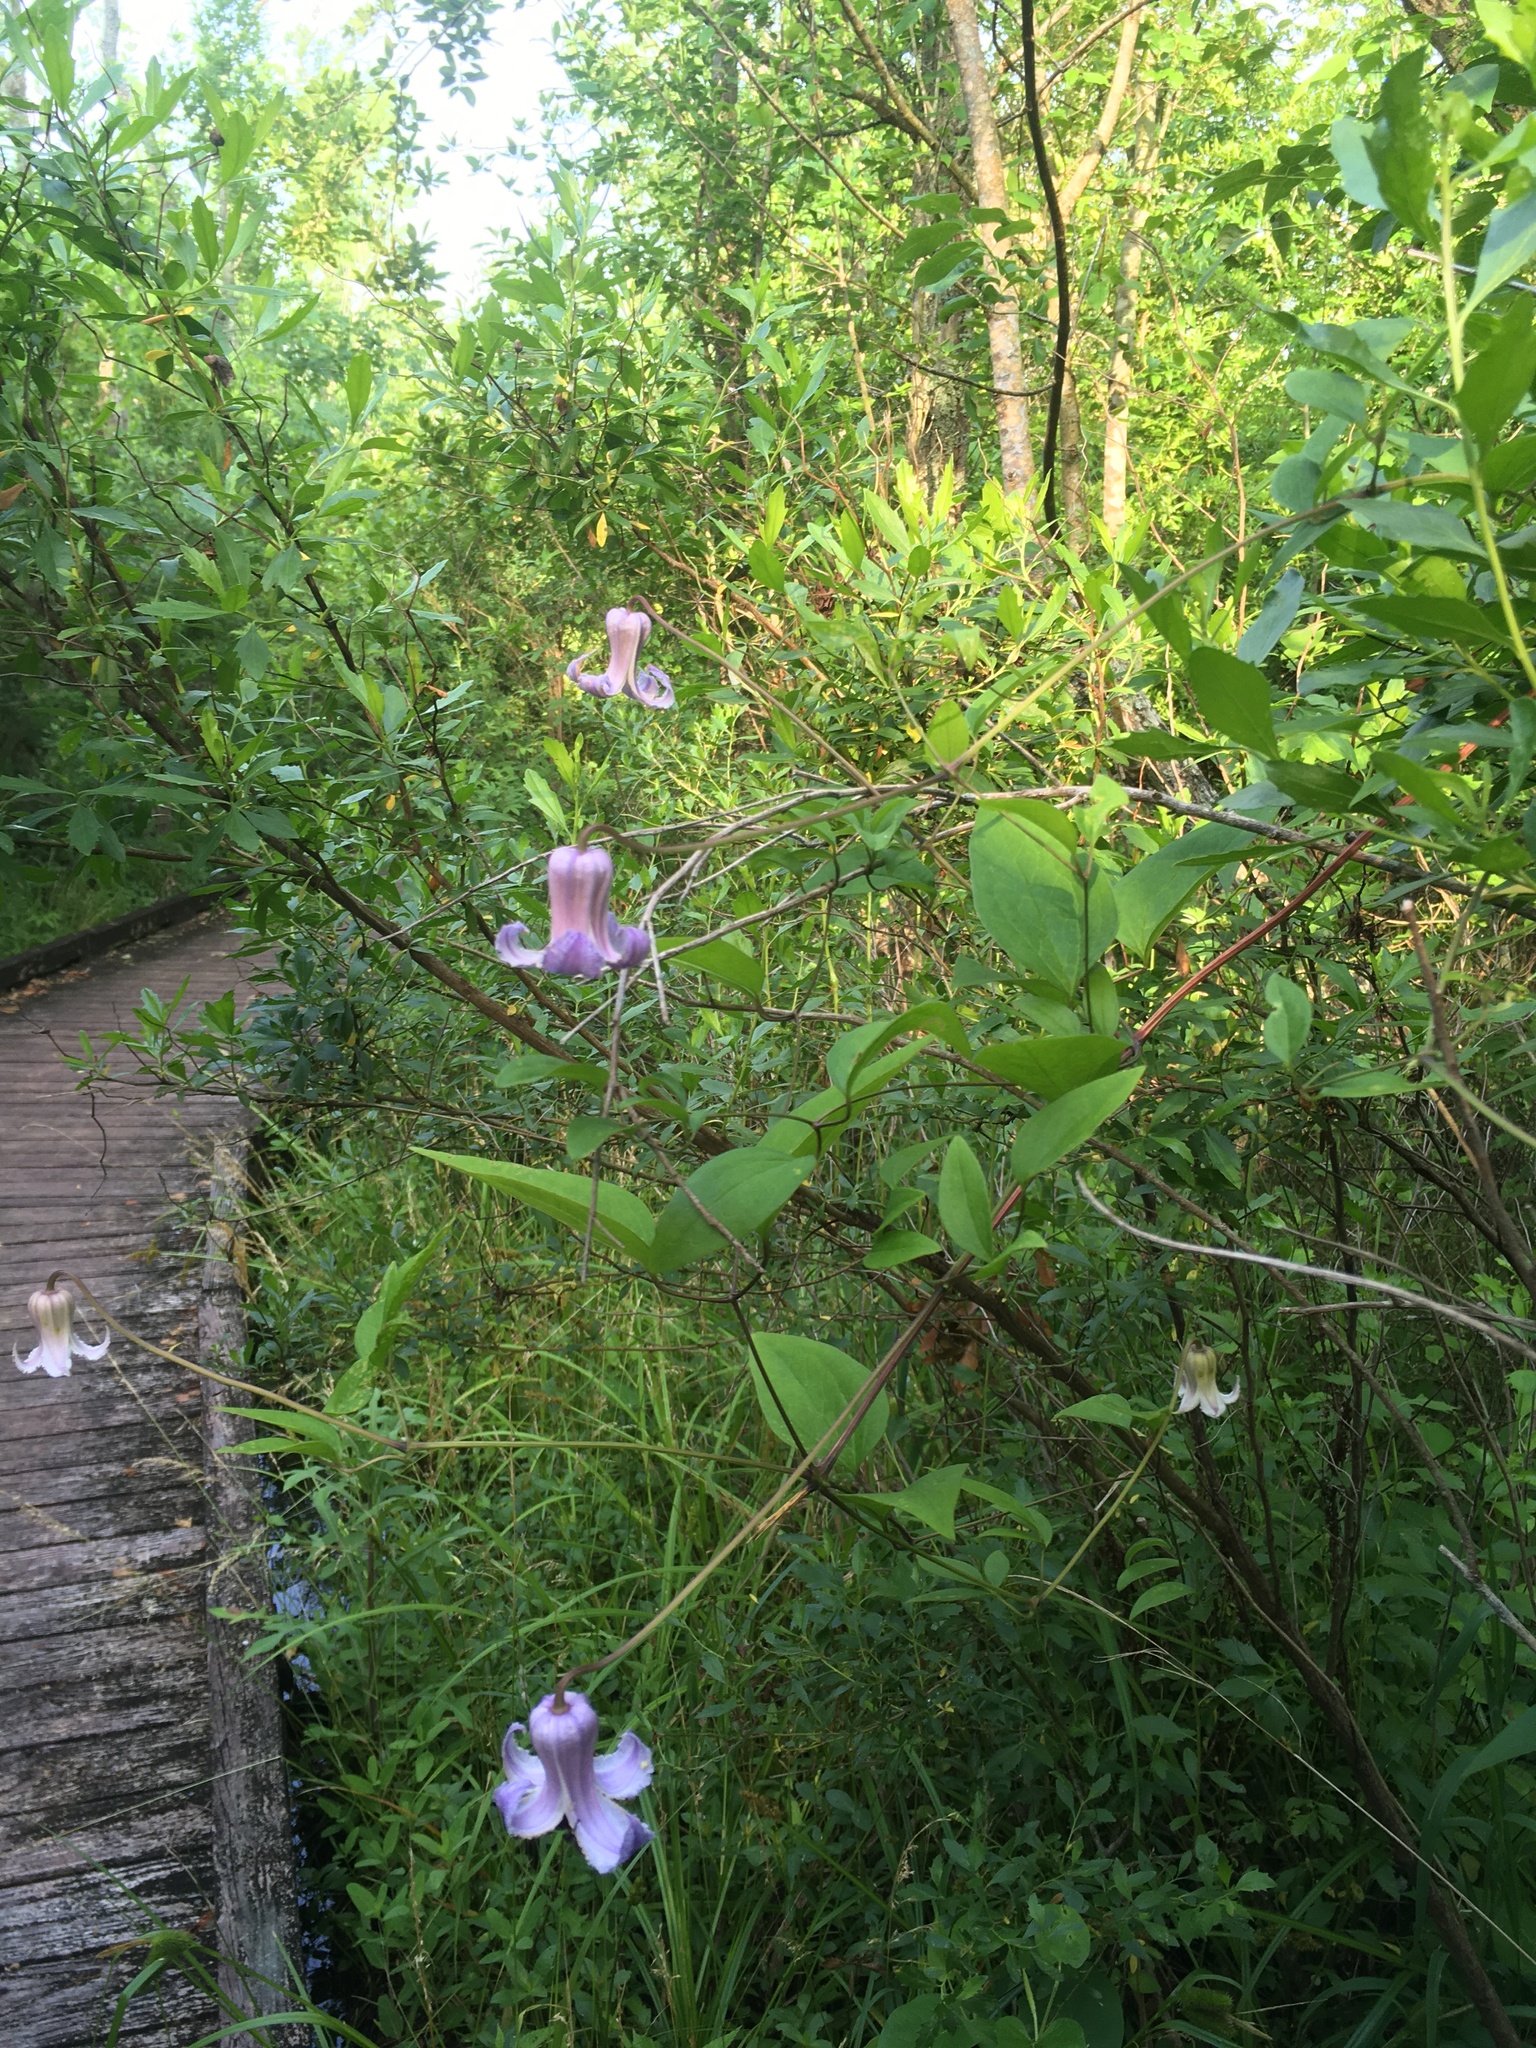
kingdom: Plantae
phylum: Tracheophyta
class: Magnoliopsida
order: Ranunculales
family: Ranunculaceae
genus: Clematis
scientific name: Clematis crispa
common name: Curly clematis
